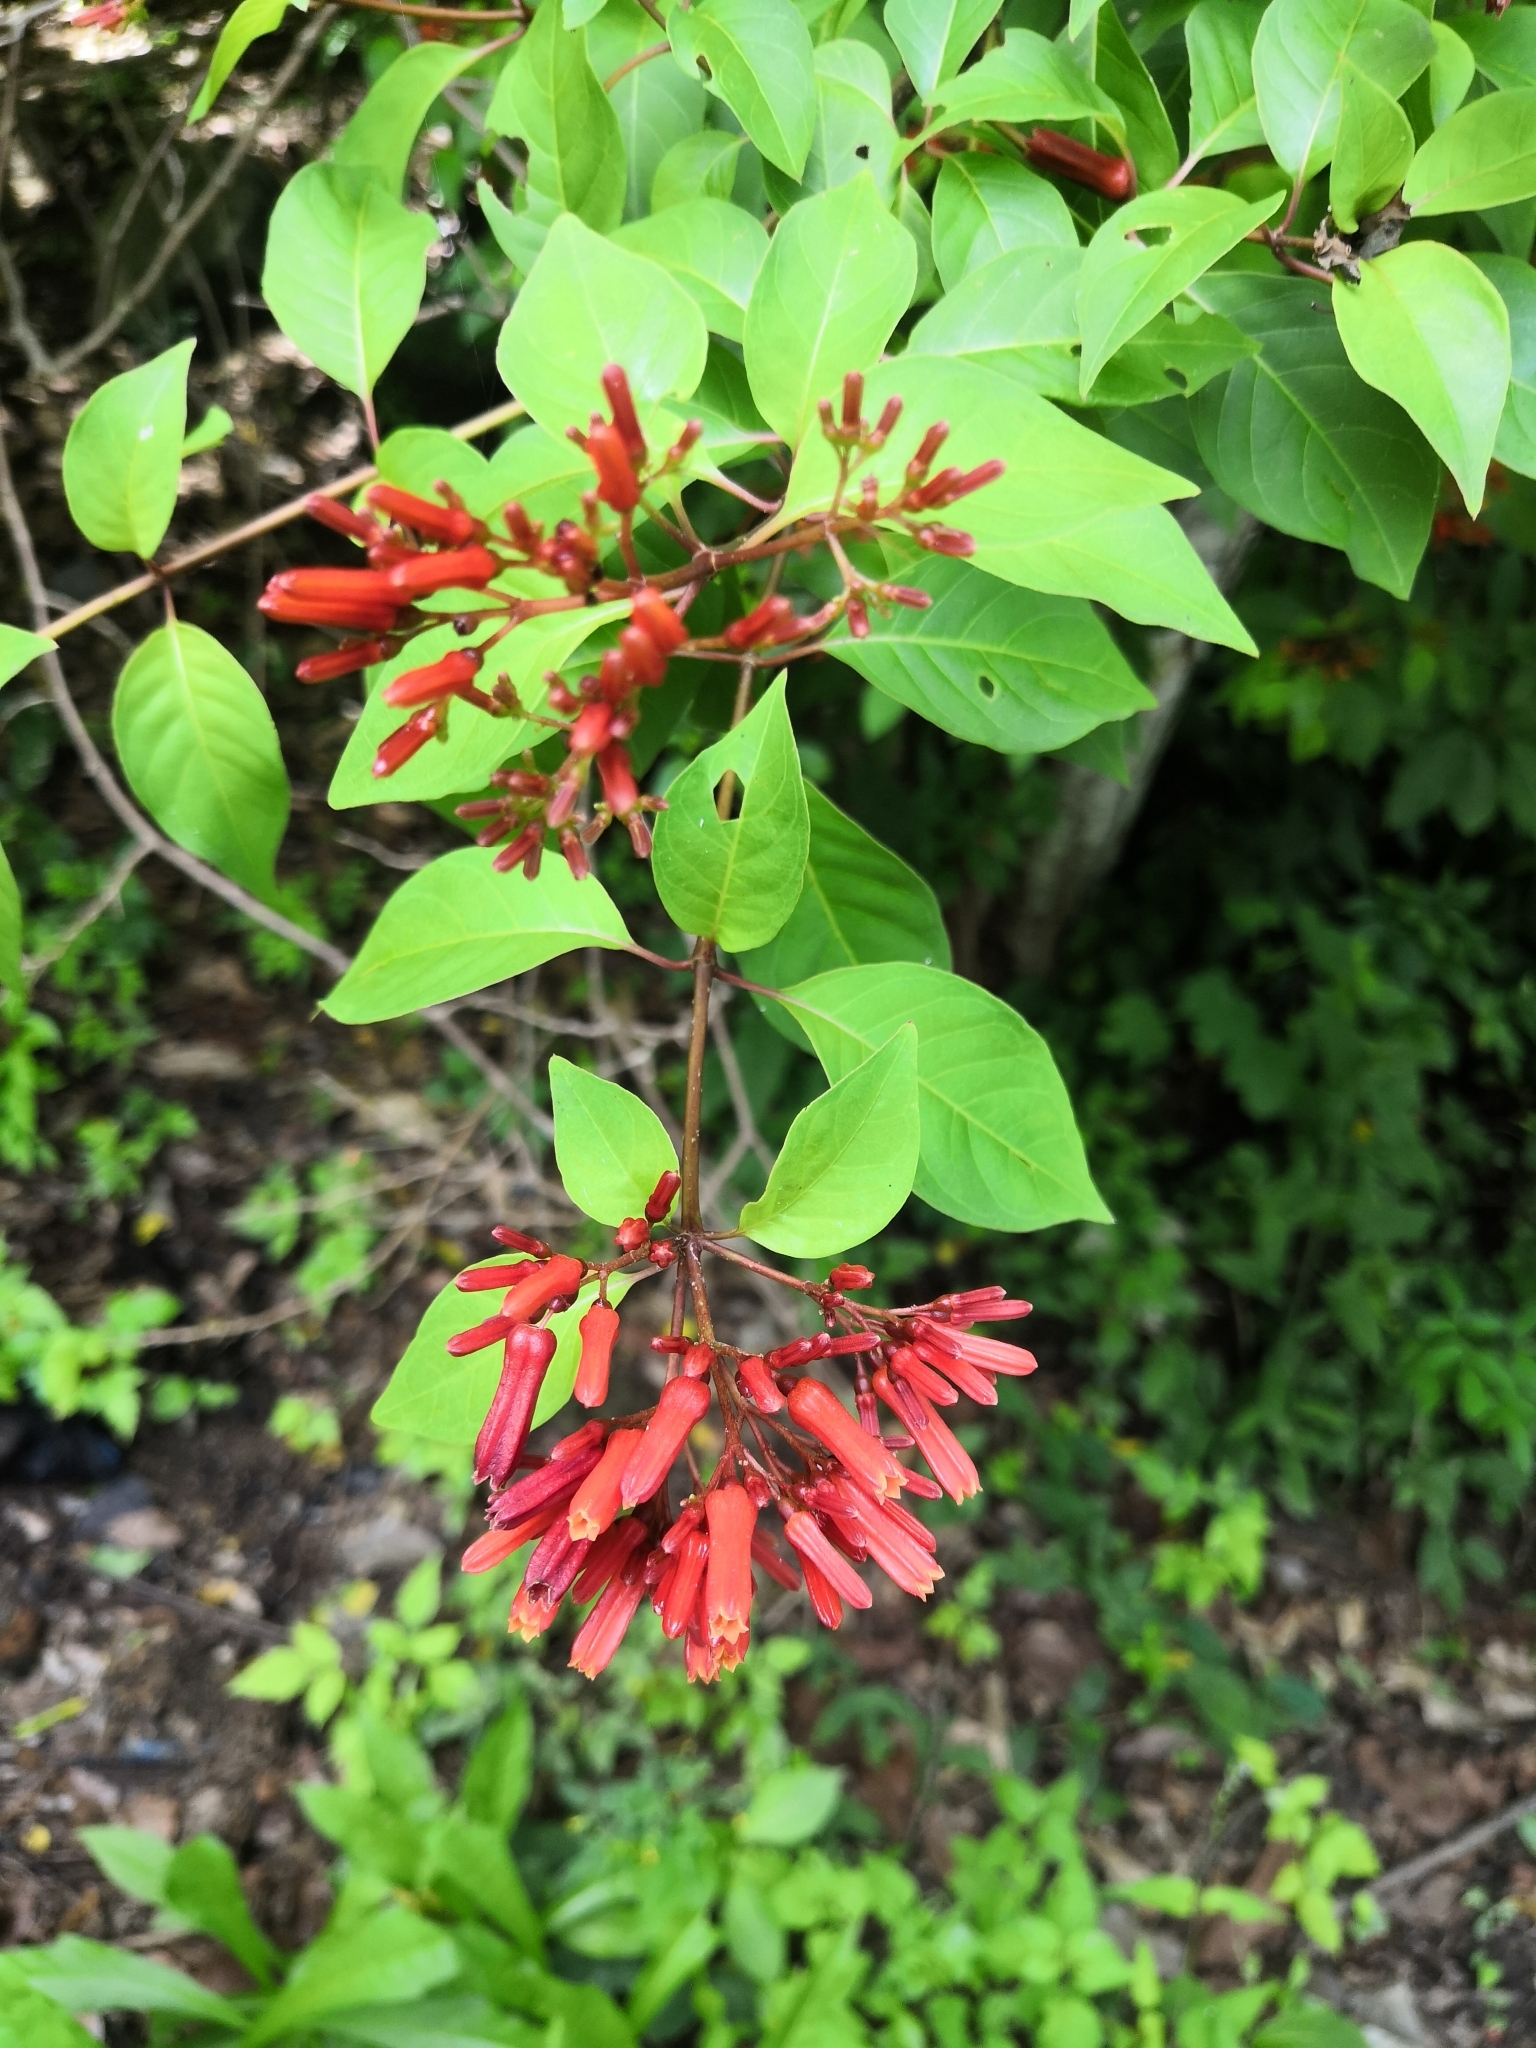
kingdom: Plantae
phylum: Tracheophyta
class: Magnoliopsida
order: Gentianales
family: Rubiaceae
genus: Hamelia
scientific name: Hamelia patens
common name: Redhead
